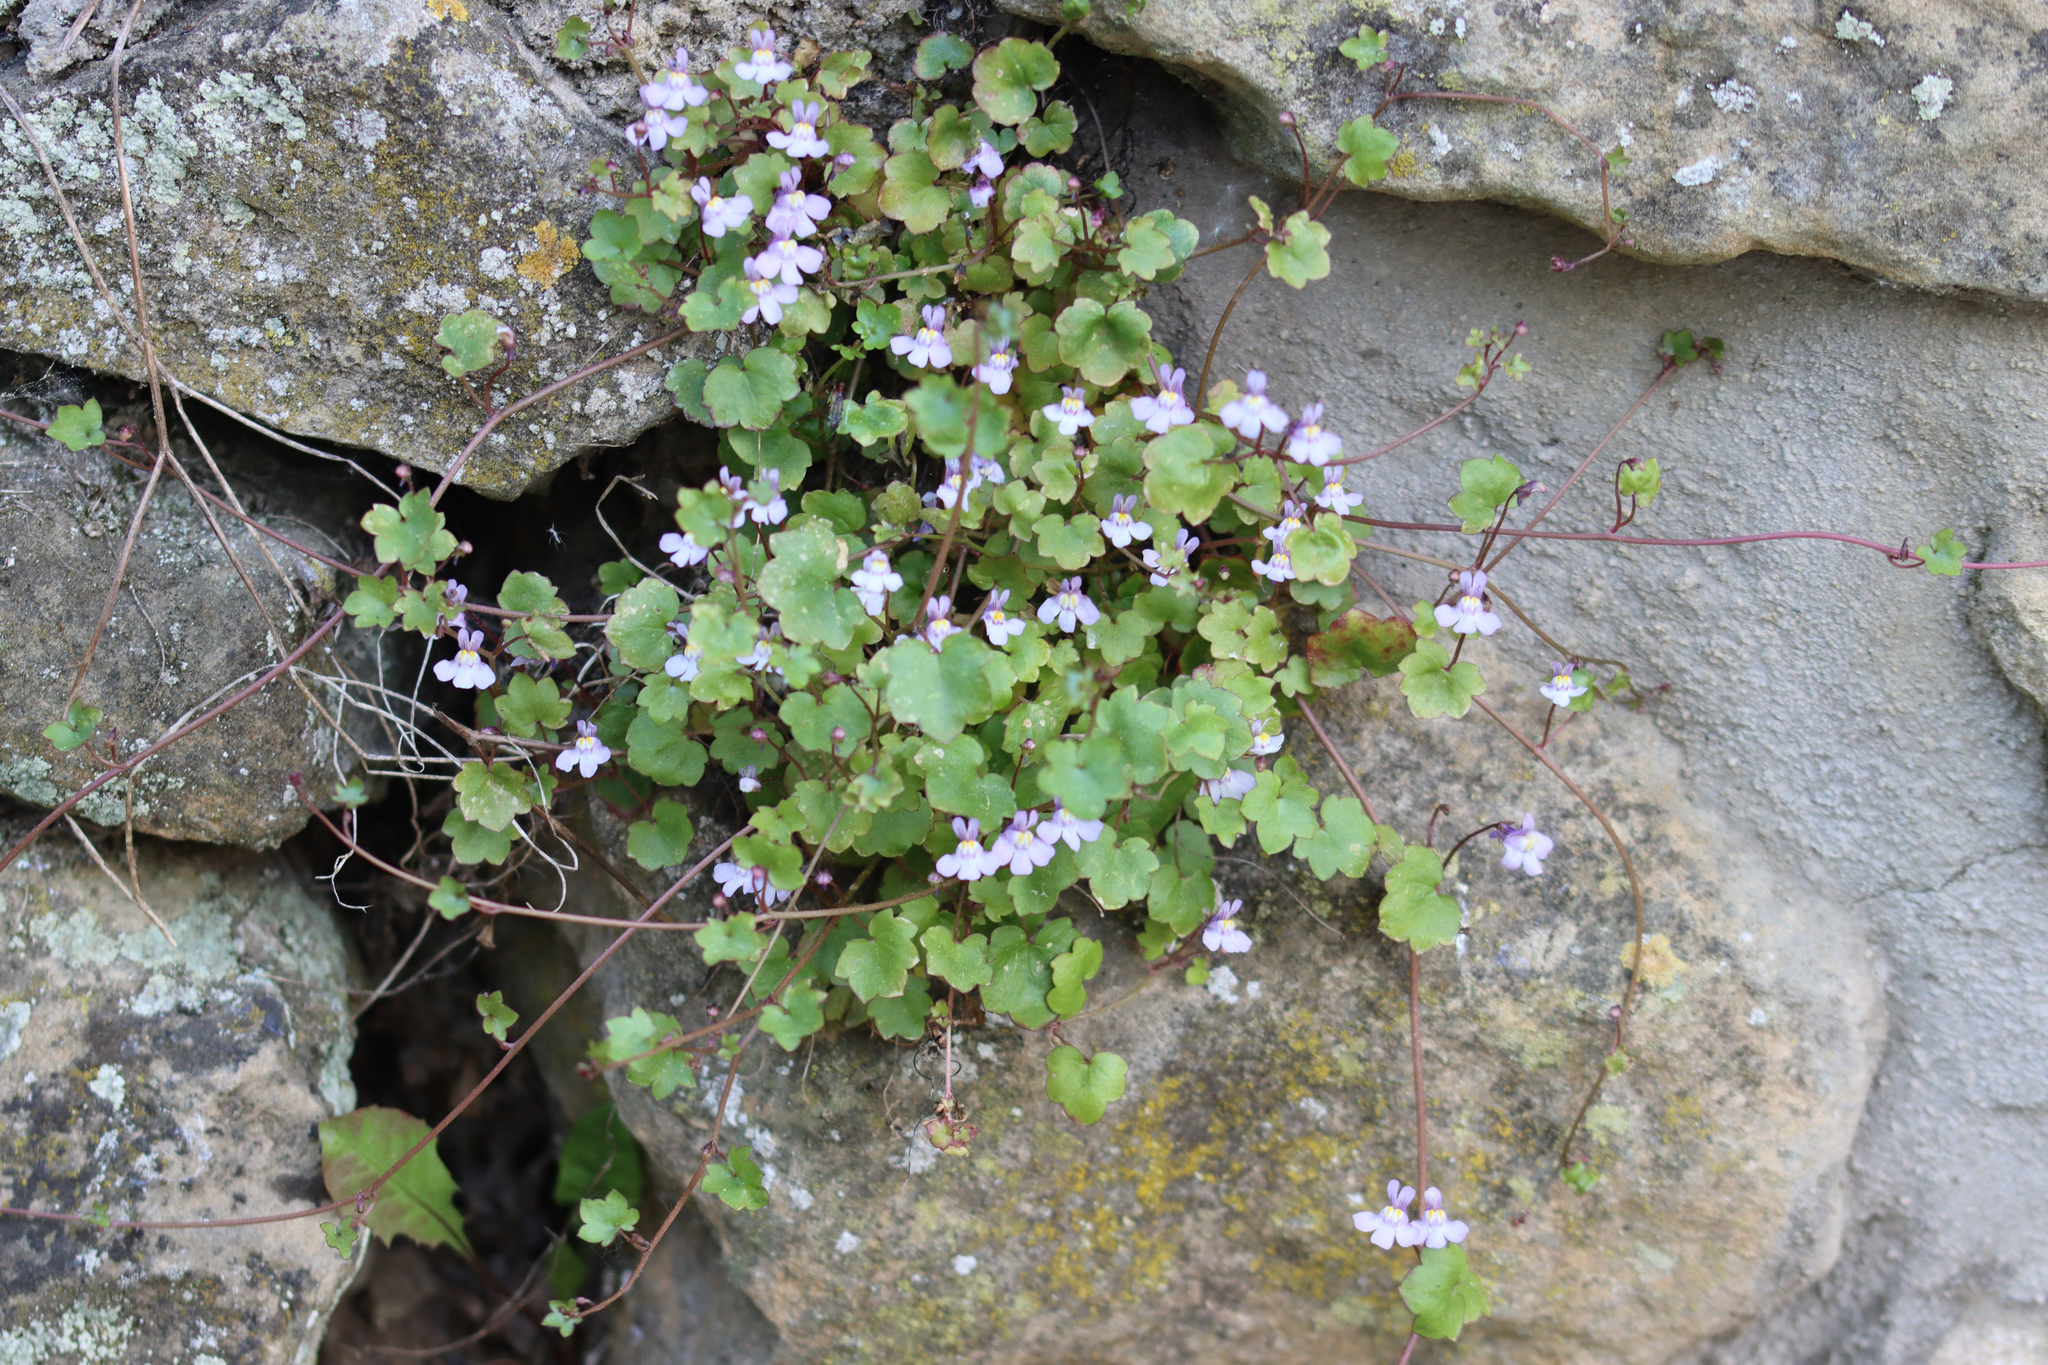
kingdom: Plantae
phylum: Tracheophyta
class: Magnoliopsida
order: Lamiales
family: Plantaginaceae
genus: Cymbalaria
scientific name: Cymbalaria muralis
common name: Ivy-leaved toadflax
